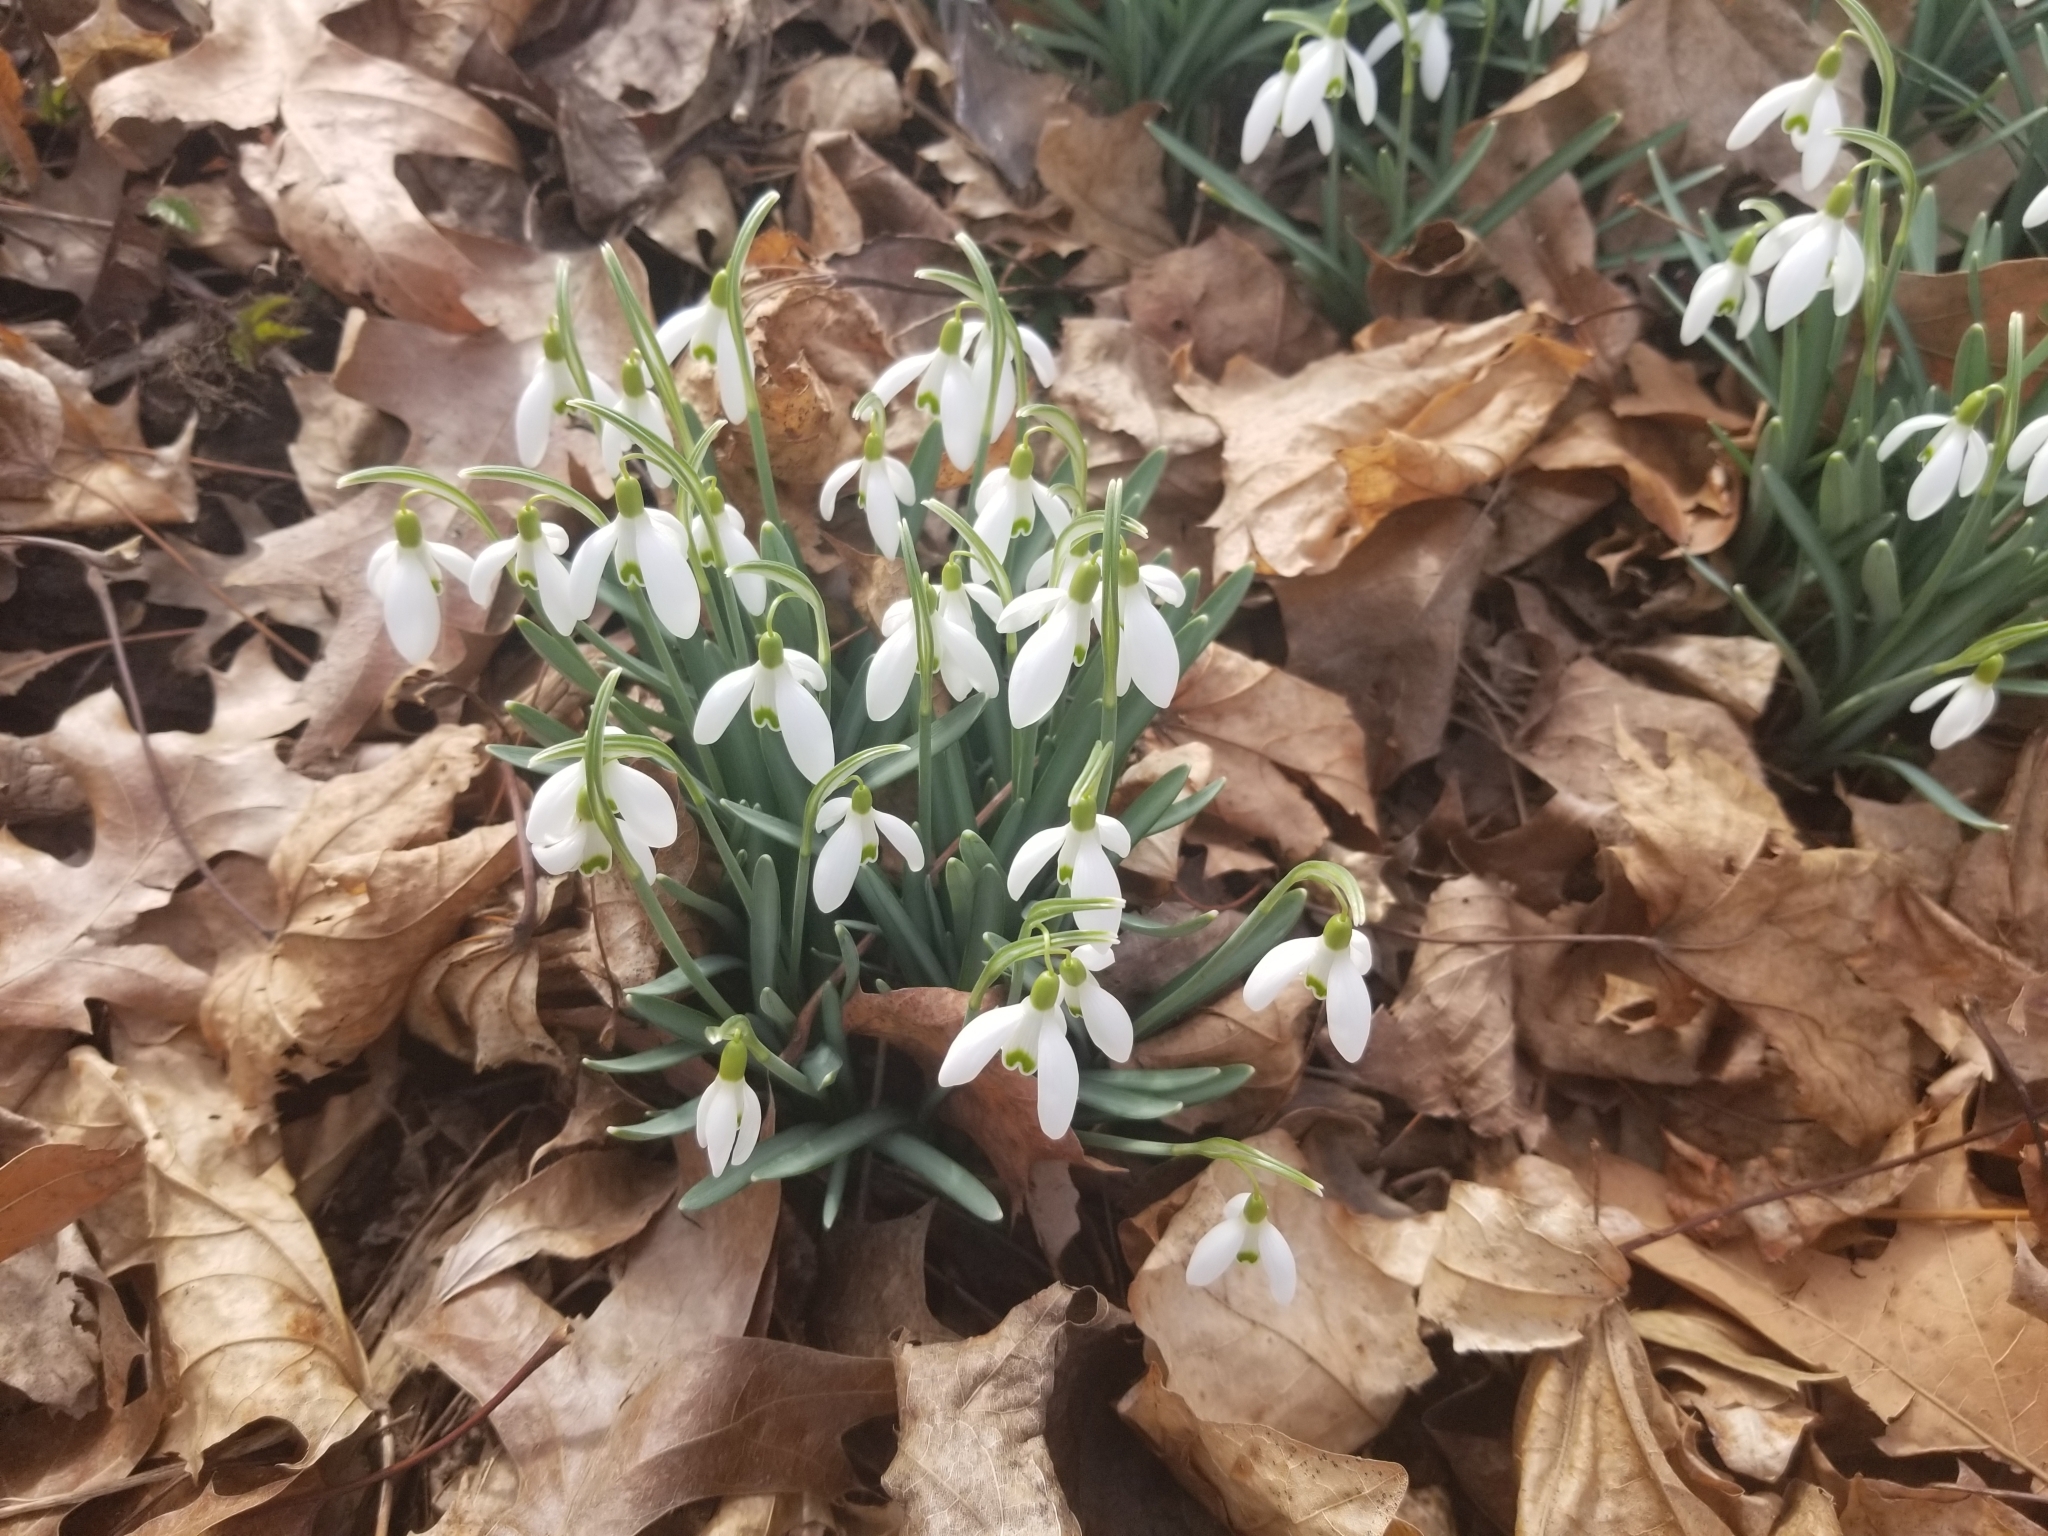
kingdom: Plantae
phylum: Tracheophyta
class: Liliopsida
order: Asparagales
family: Amaryllidaceae
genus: Galanthus
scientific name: Galanthus nivalis
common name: Snowdrop
